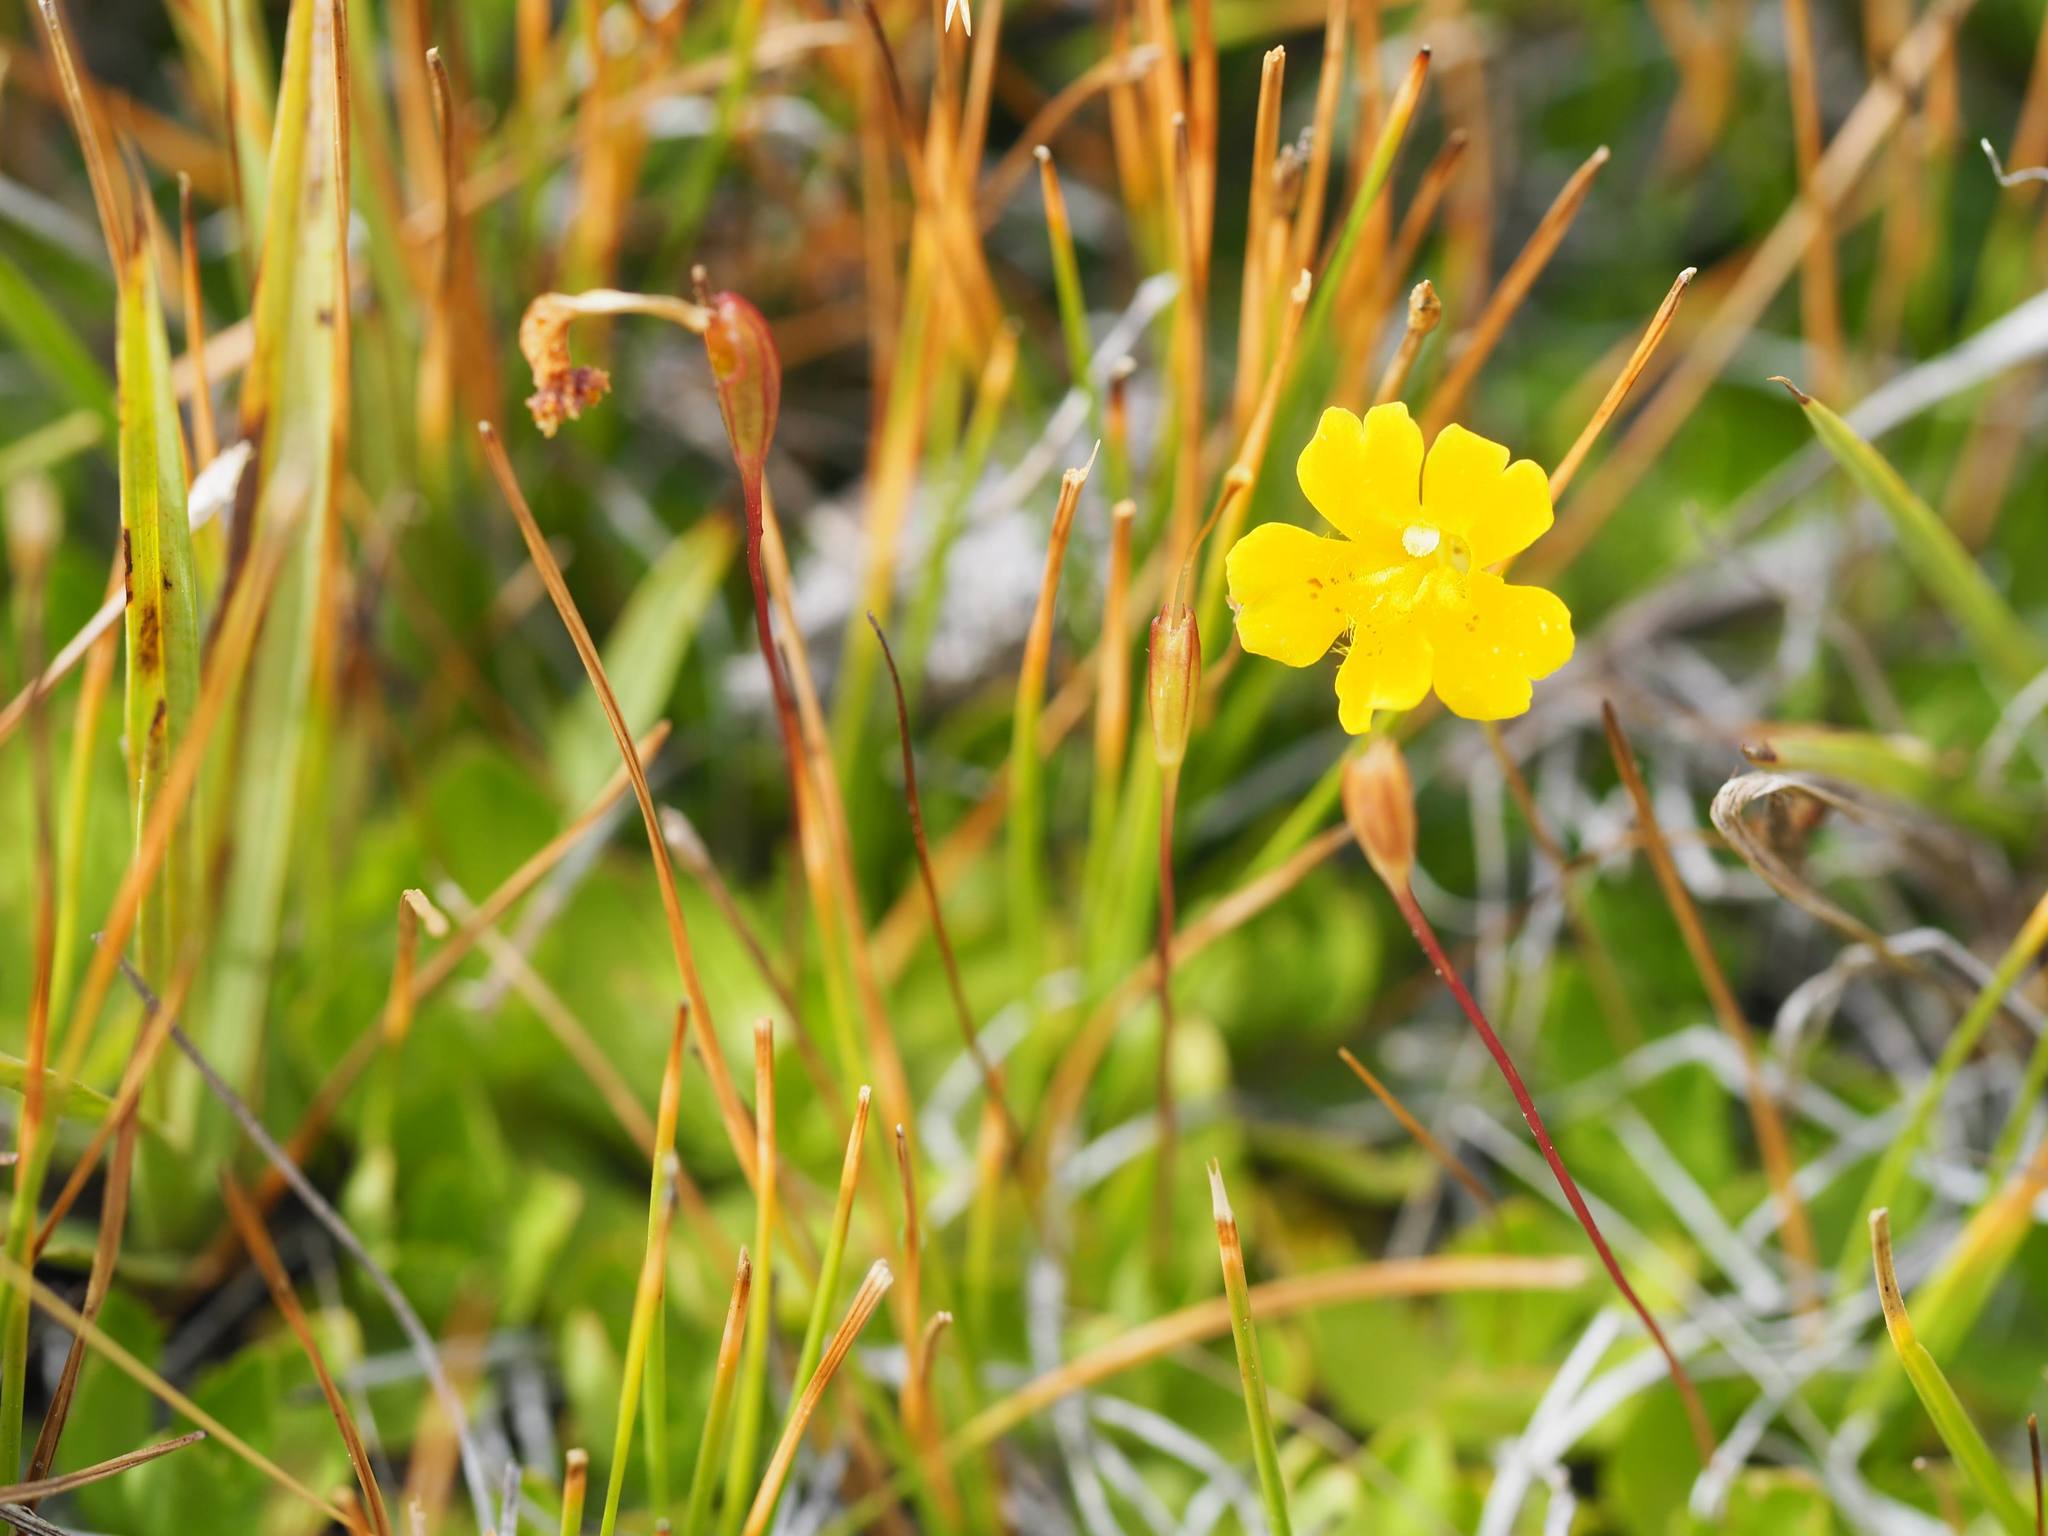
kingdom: Plantae
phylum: Tracheophyta
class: Magnoliopsida
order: Lamiales
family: Phrymaceae
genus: Erythranthe
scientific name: Erythranthe primuloides
